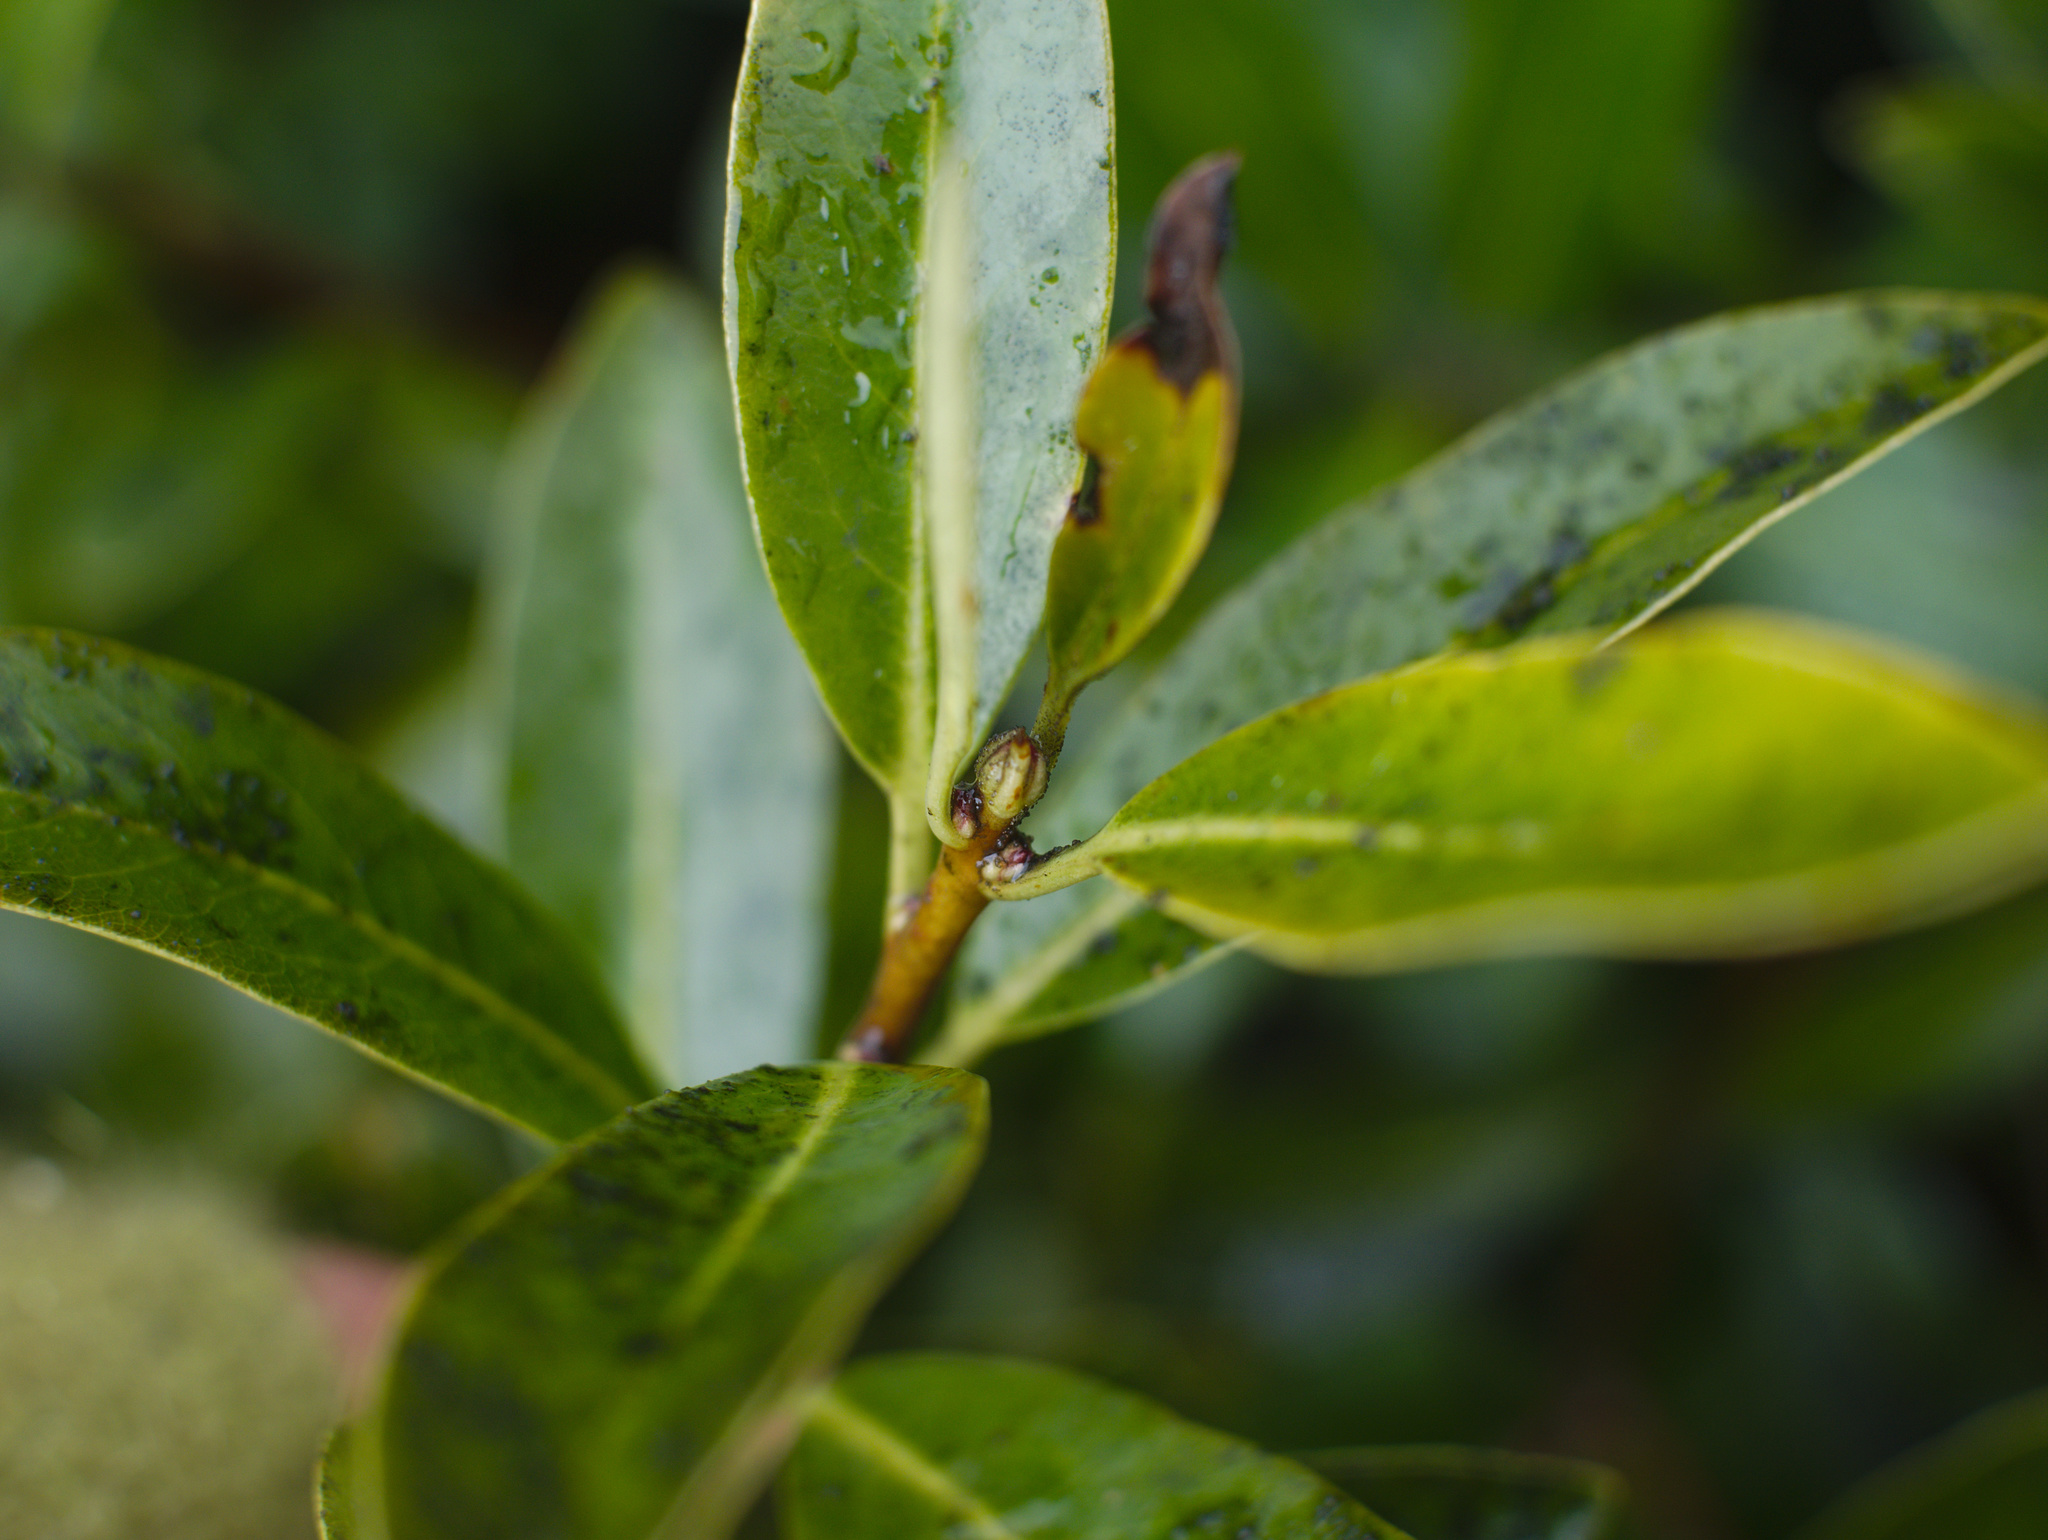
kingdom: Plantae
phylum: Tracheophyta
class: Magnoliopsida
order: Apiales
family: Pittosporaceae
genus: Pittosporum
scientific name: Pittosporum colensoi
